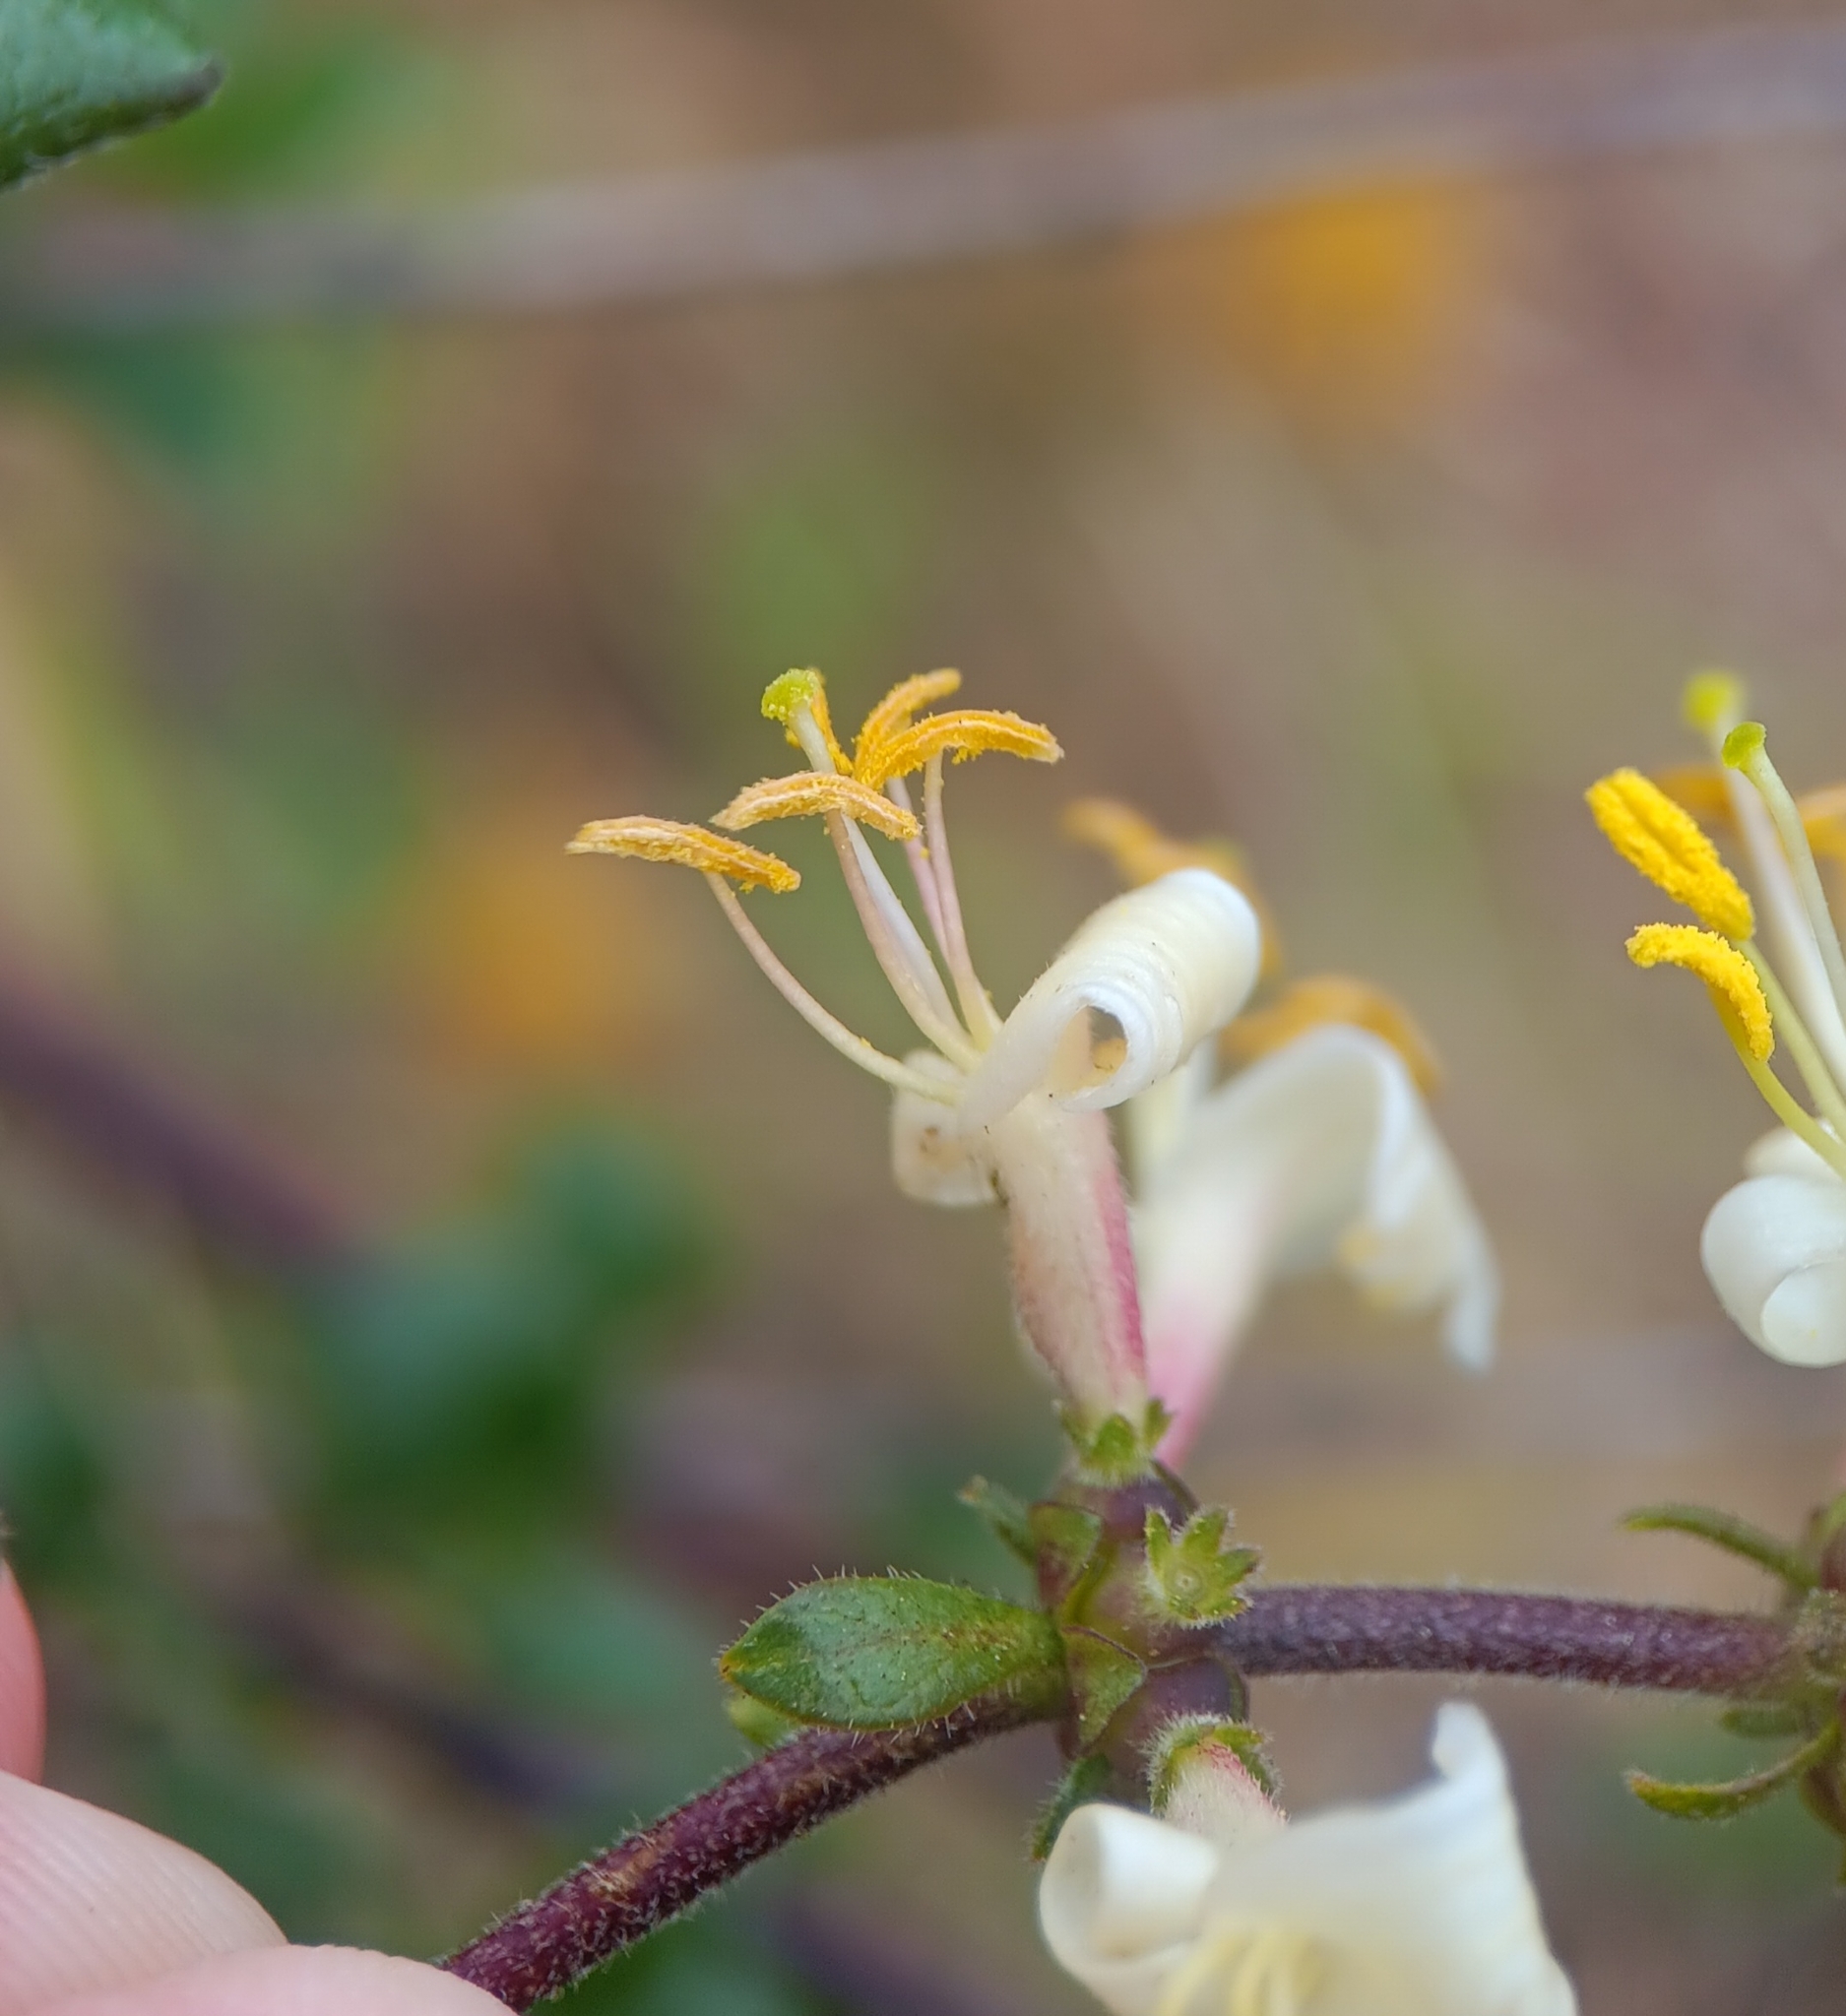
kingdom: Plantae
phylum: Tracheophyta
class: Magnoliopsida
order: Dipsacales
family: Caprifoliaceae
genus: Lonicera
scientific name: Lonicera subspicata
